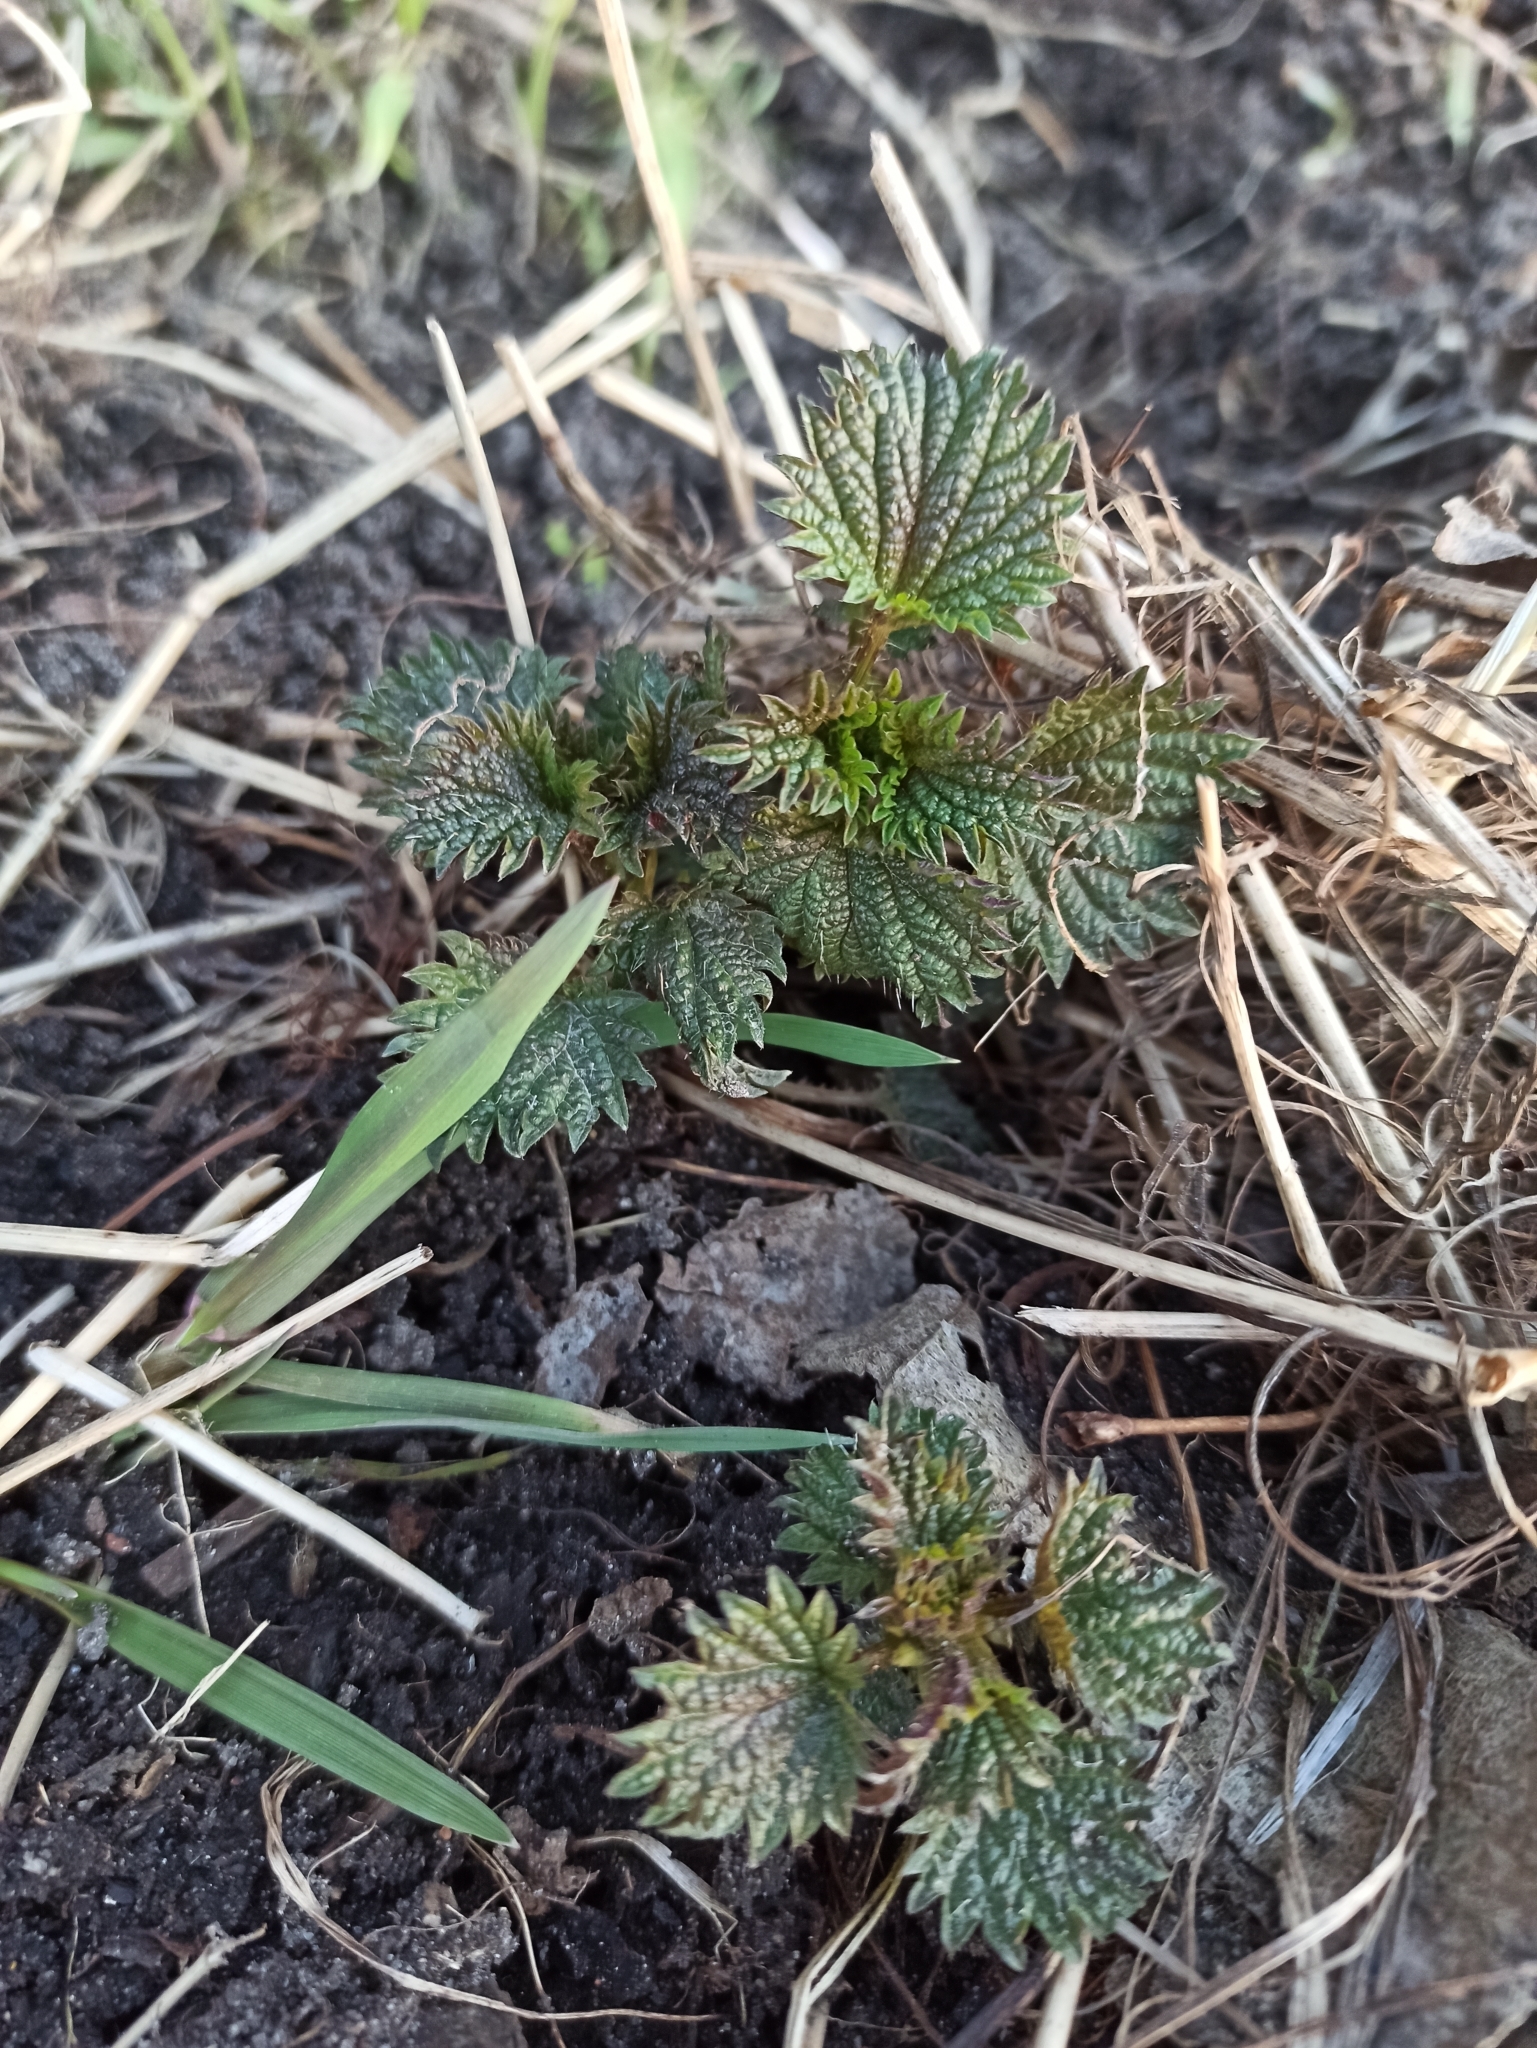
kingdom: Plantae
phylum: Tracheophyta
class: Magnoliopsida
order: Rosales
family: Urticaceae
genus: Urtica
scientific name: Urtica dioica
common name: Common nettle
